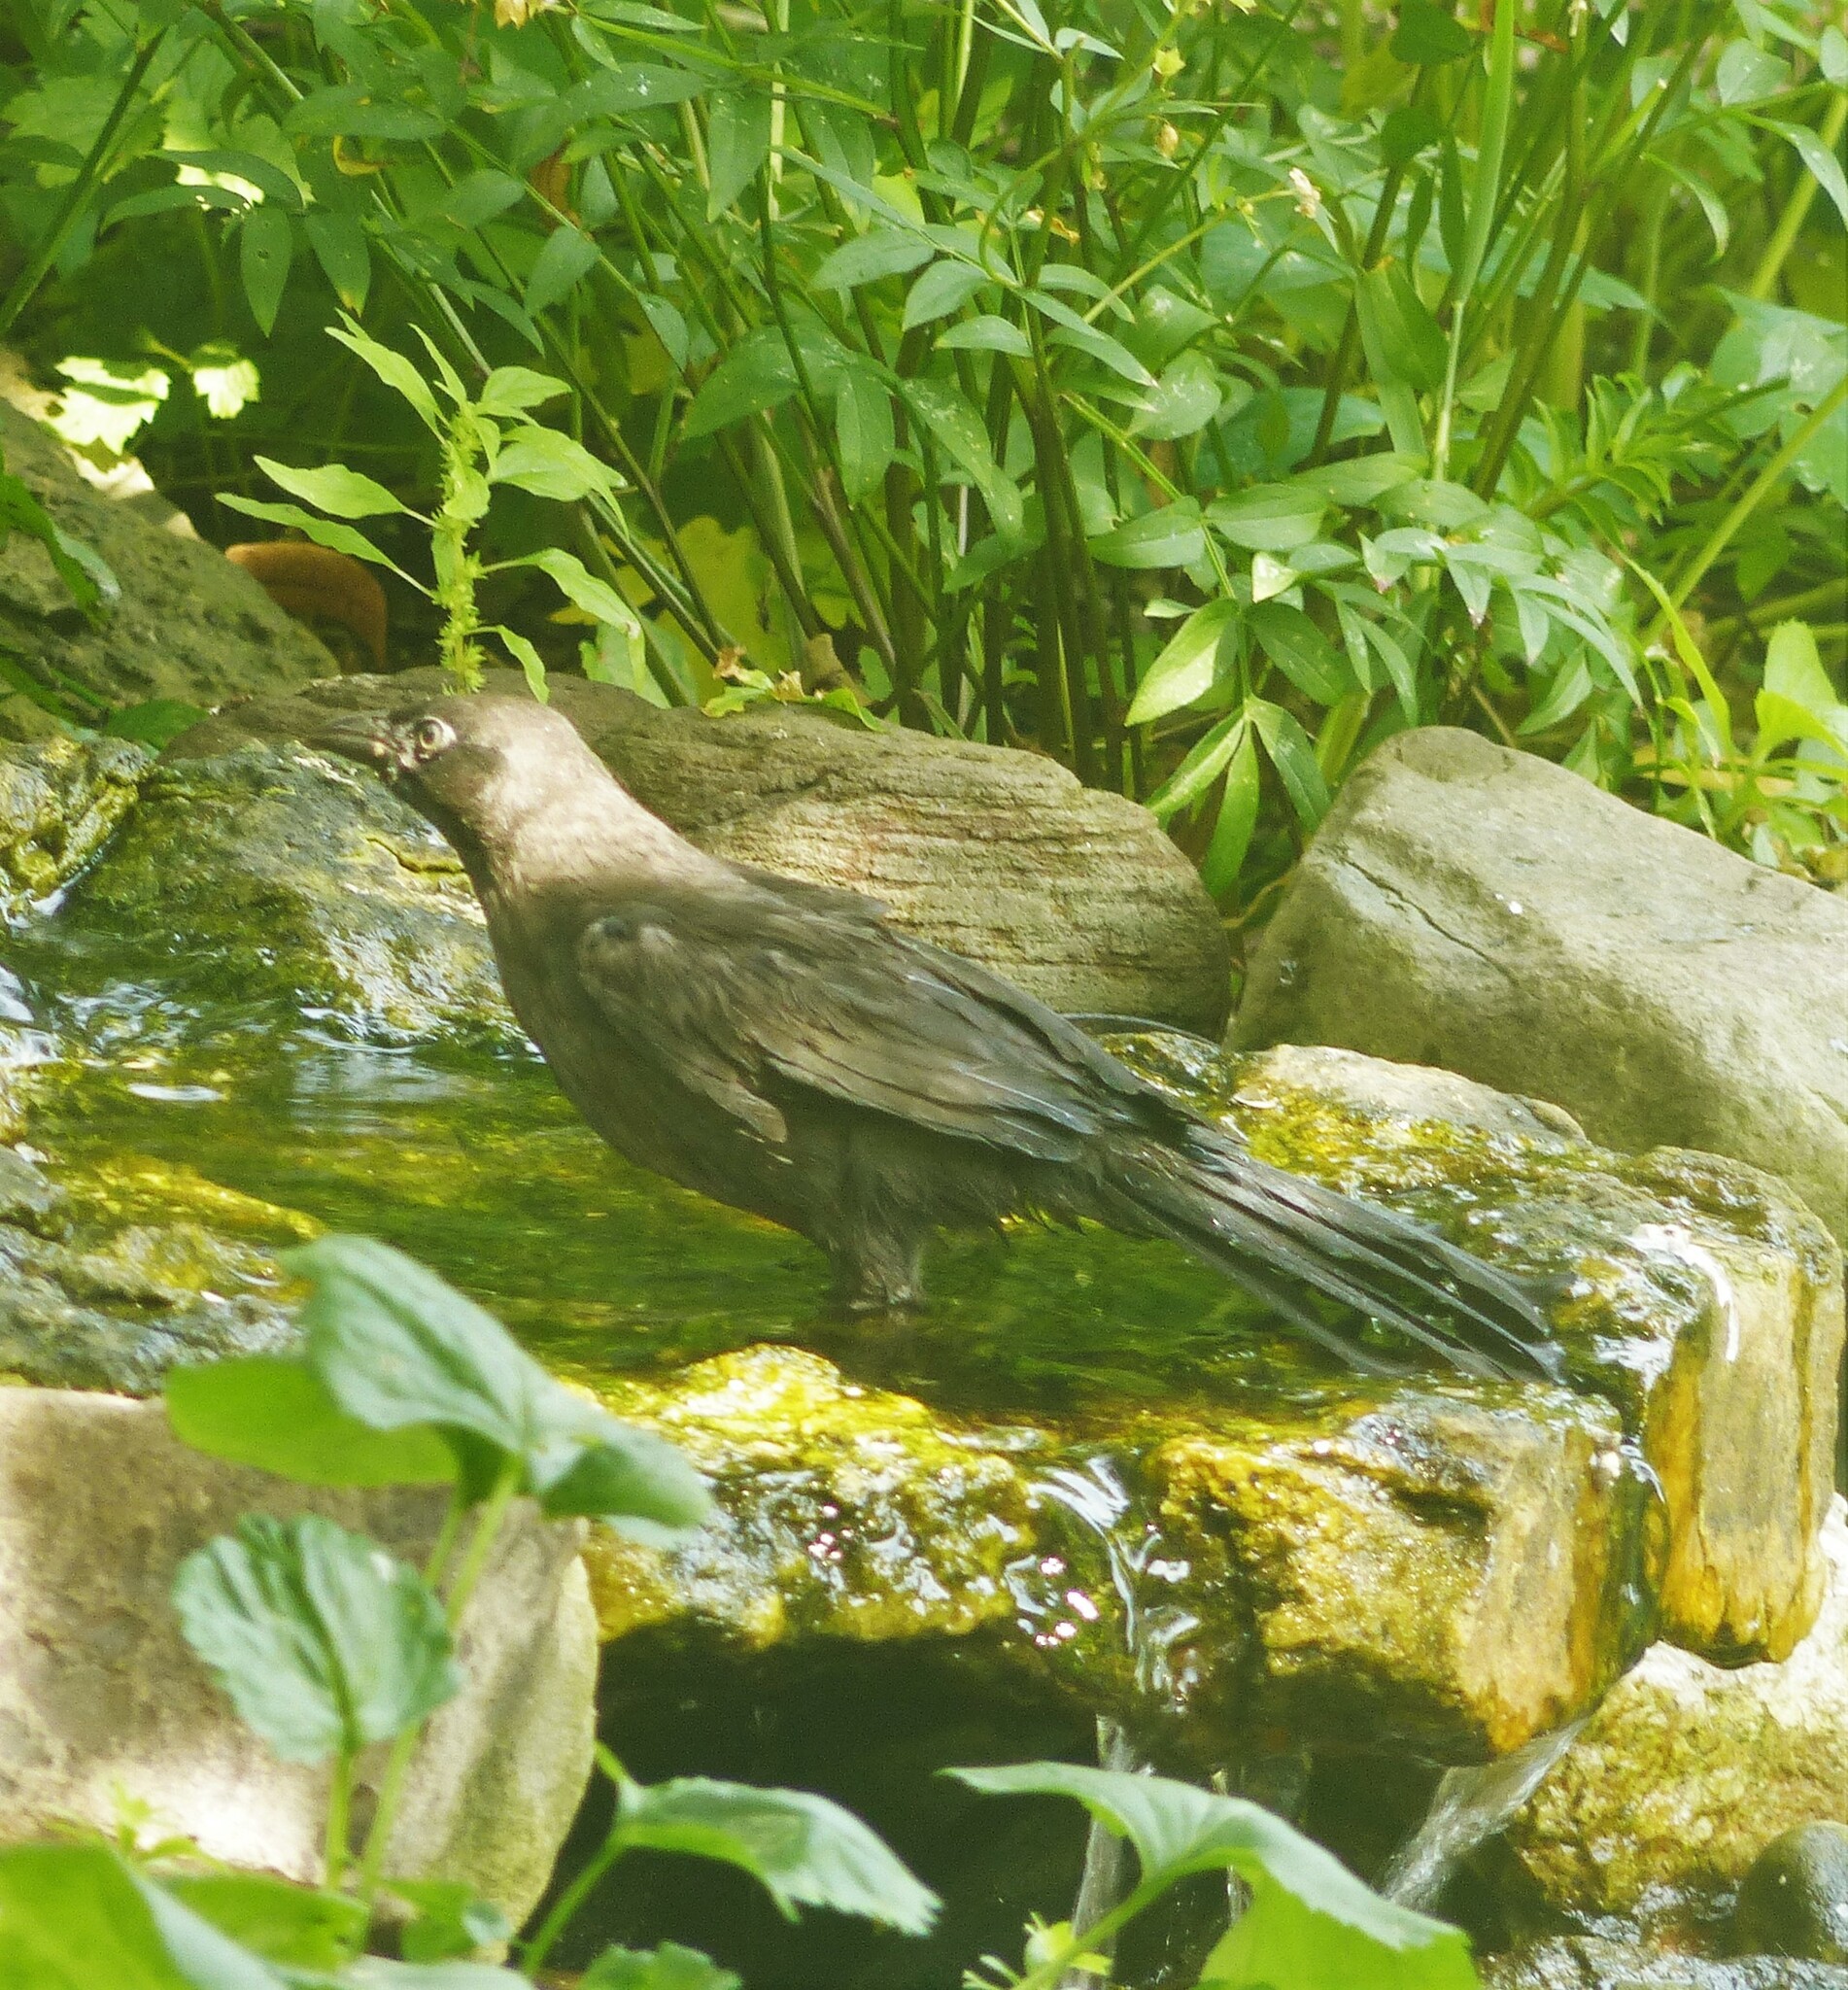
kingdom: Animalia
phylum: Chordata
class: Aves
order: Passeriformes
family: Icteridae
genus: Quiscalus
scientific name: Quiscalus quiscula
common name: Common grackle
